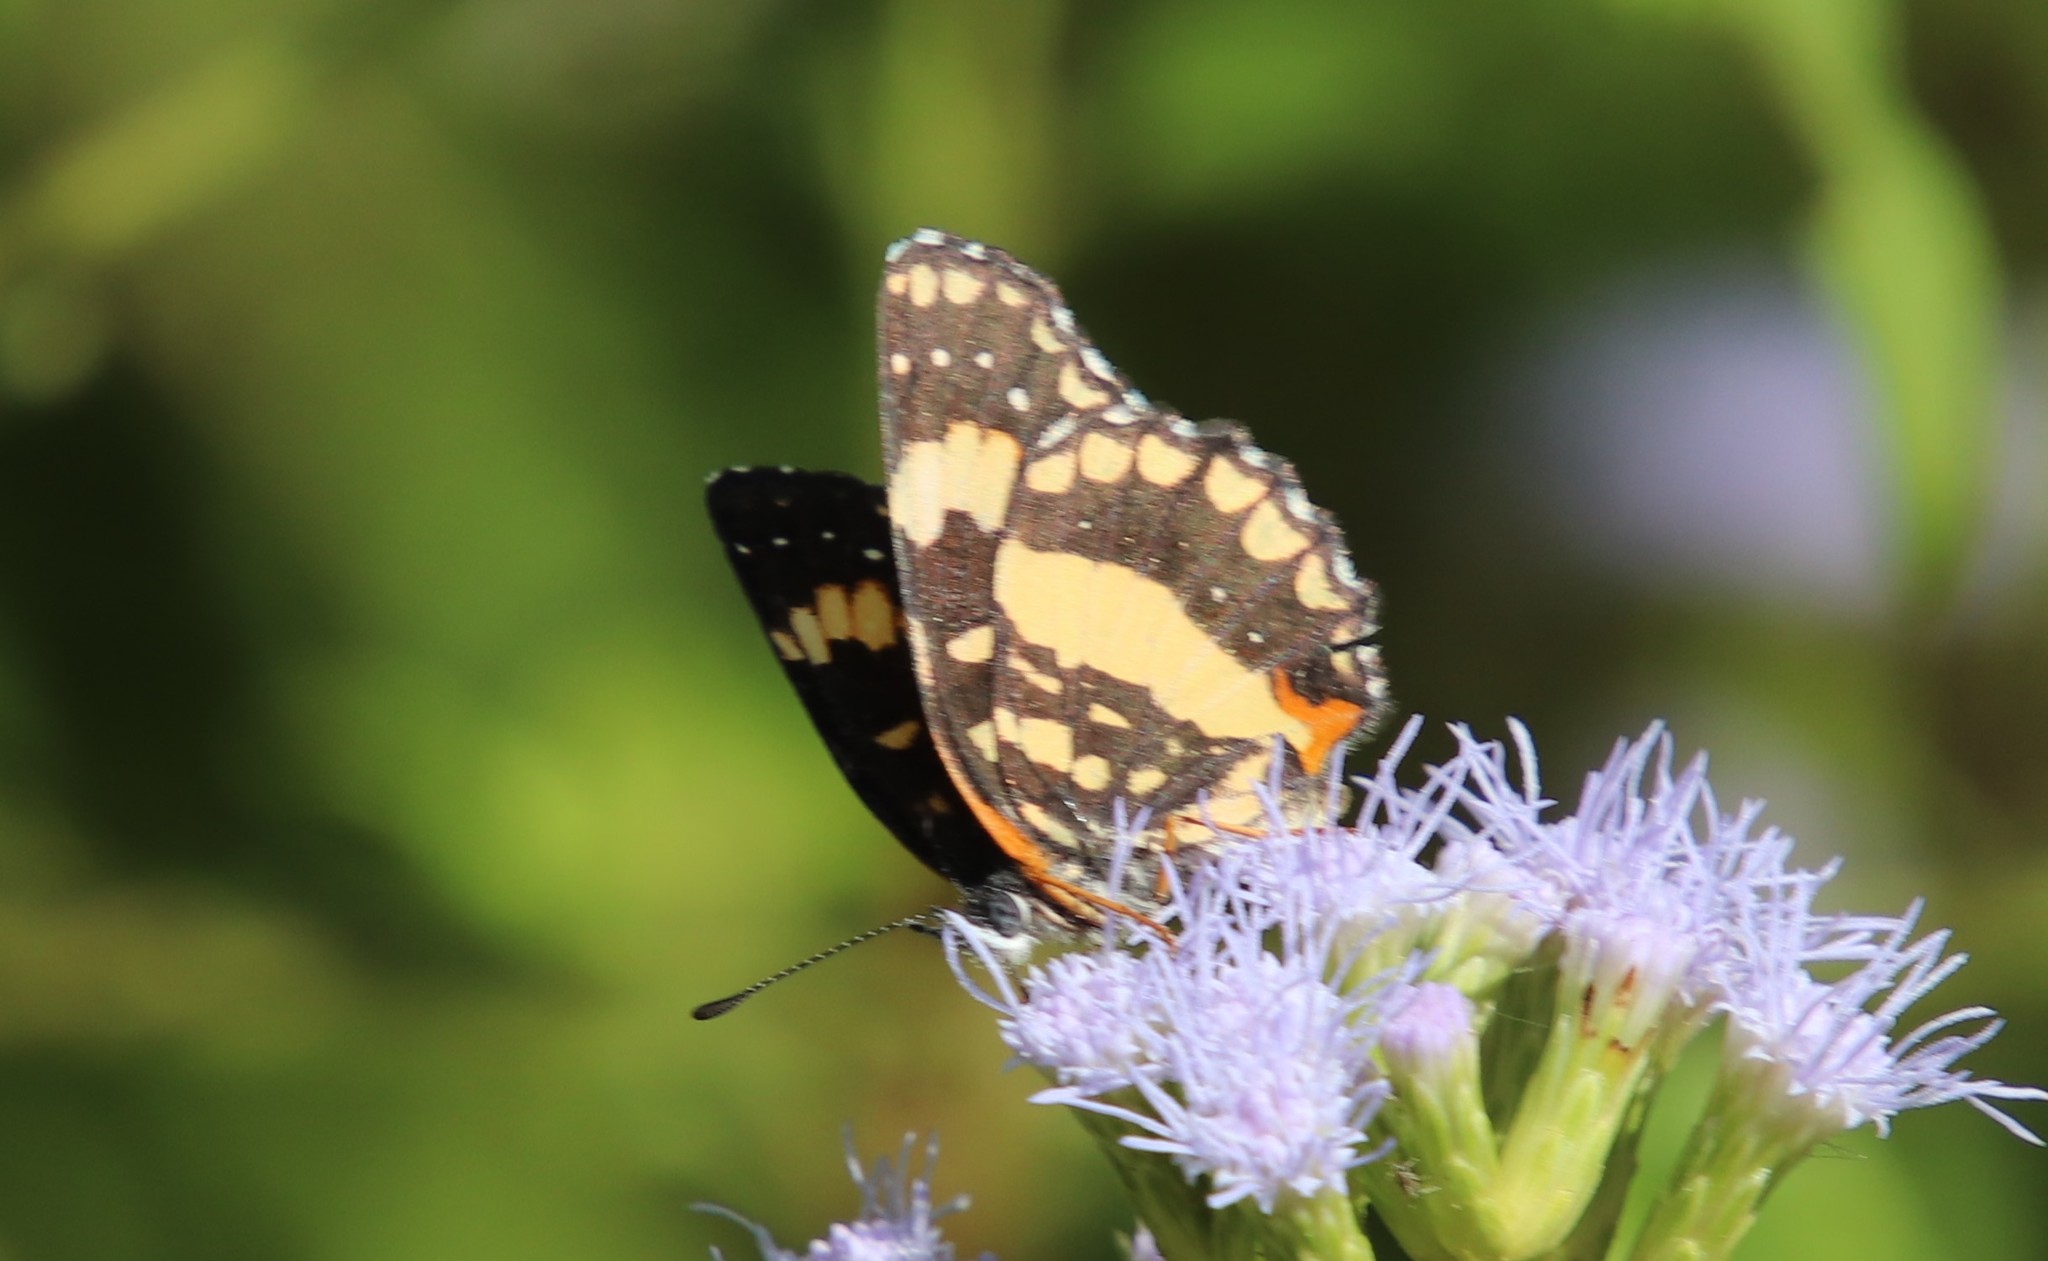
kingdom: Animalia
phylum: Arthropoda
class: Insecta
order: Lepidoptera
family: Nymphalidae
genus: Chlosyne
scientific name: Chlosyne lacinia
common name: Bordered patch
